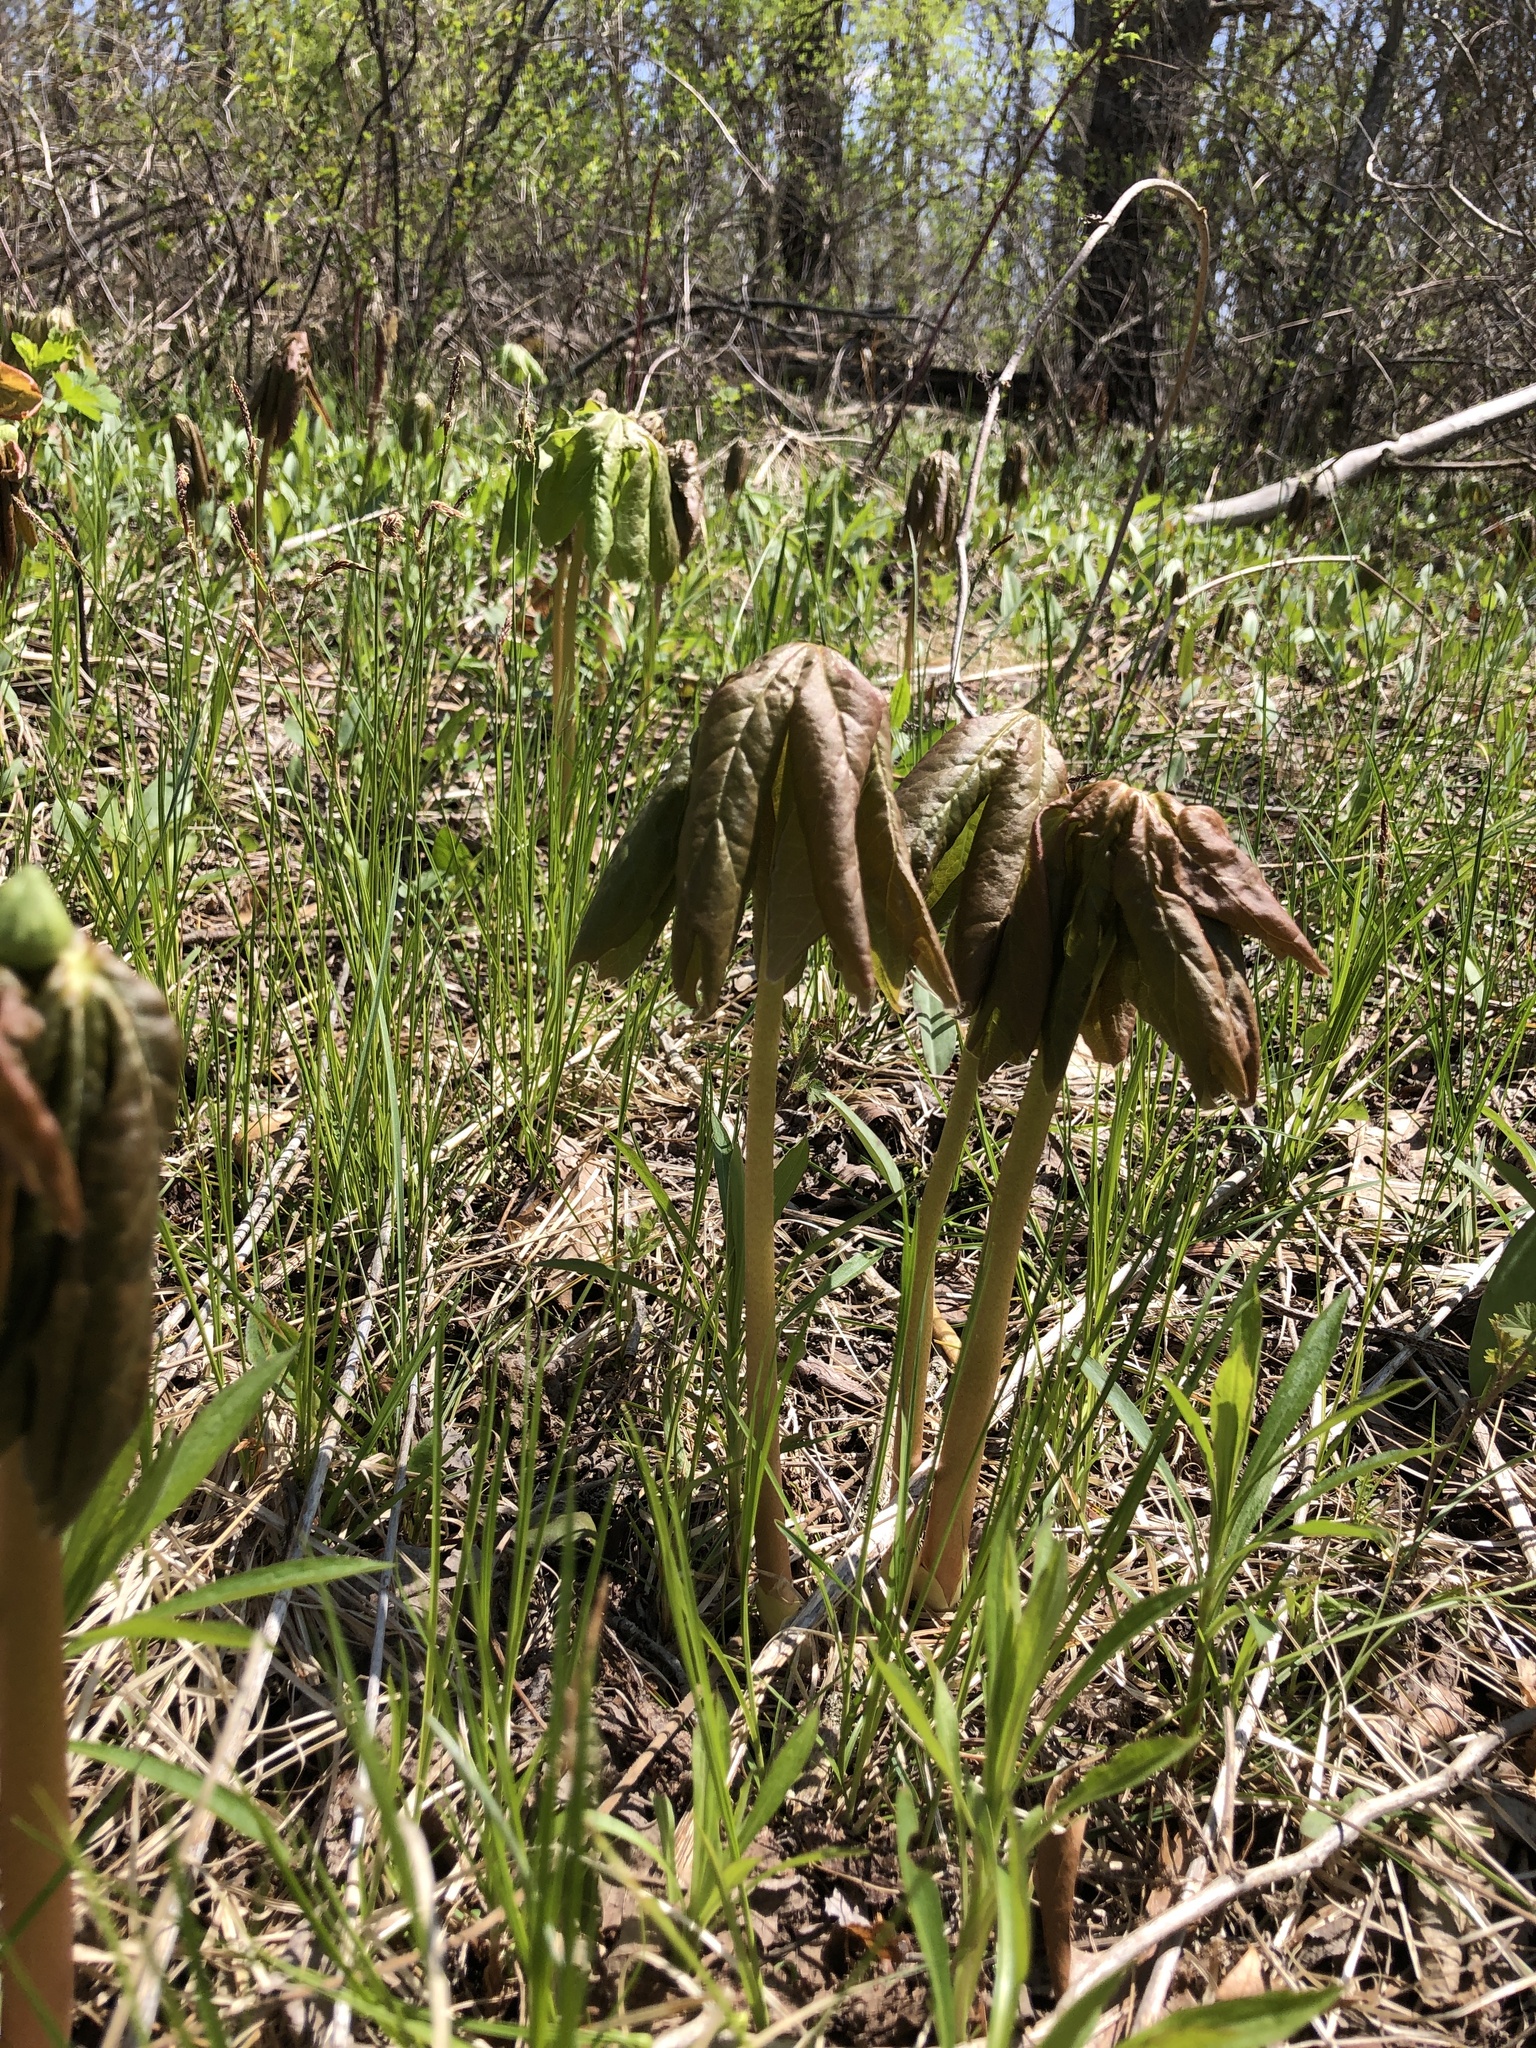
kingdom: Plantae
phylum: Tracheophyta
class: Magnoliopsida
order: Ranunculales
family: Berberidaceae
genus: Podophyllum
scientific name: Podophyllum peltatum
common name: Wild mandrake
